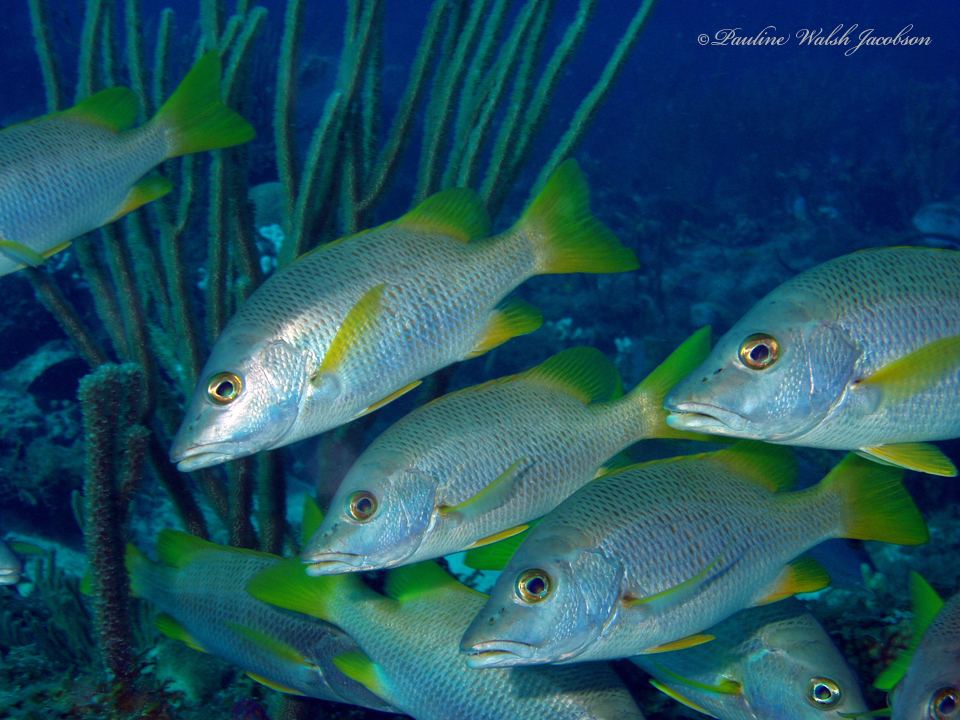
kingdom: Animalia
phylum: Chordata
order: Perciformes
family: Lutjanidae
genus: Lutjanus
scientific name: Lutjanus apodus
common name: Schoolmaster
